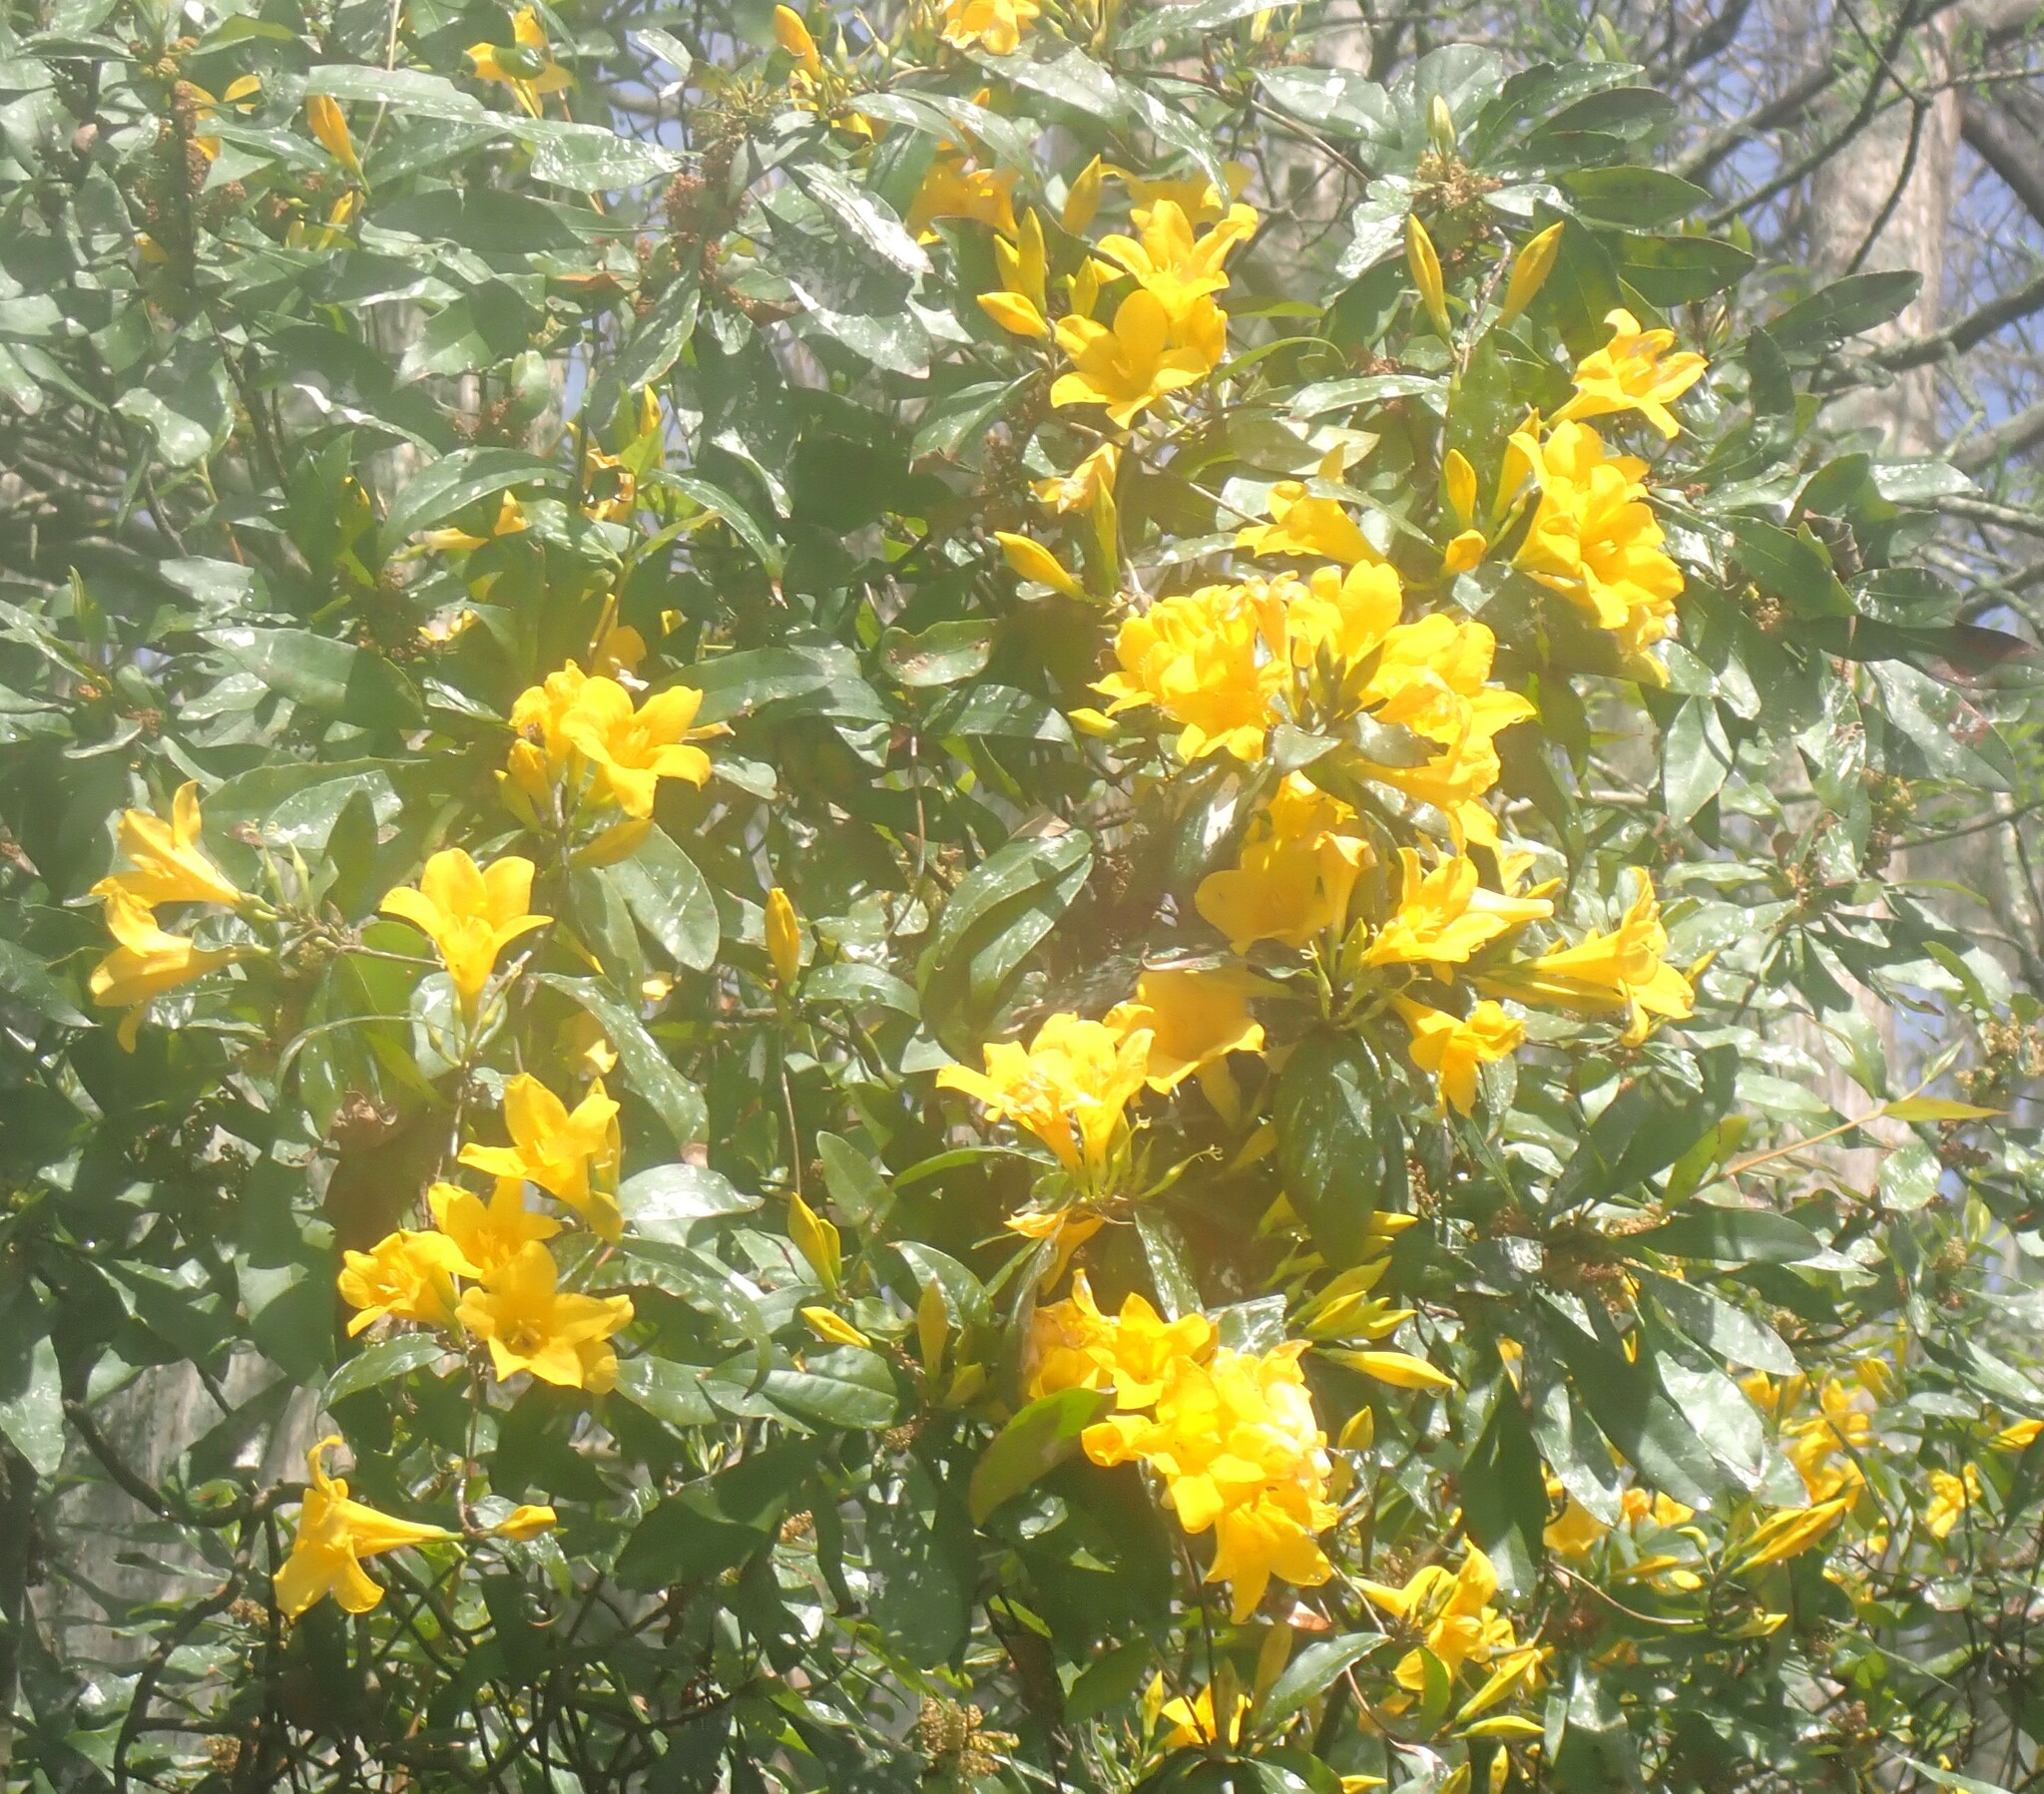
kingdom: Plantae
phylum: Tracheophyta
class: Magnoliopsida
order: Gentianales
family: Gelsemiaceae
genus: Gelsemium
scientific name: Gelsemium sempervirens
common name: Carolina-jasmine
